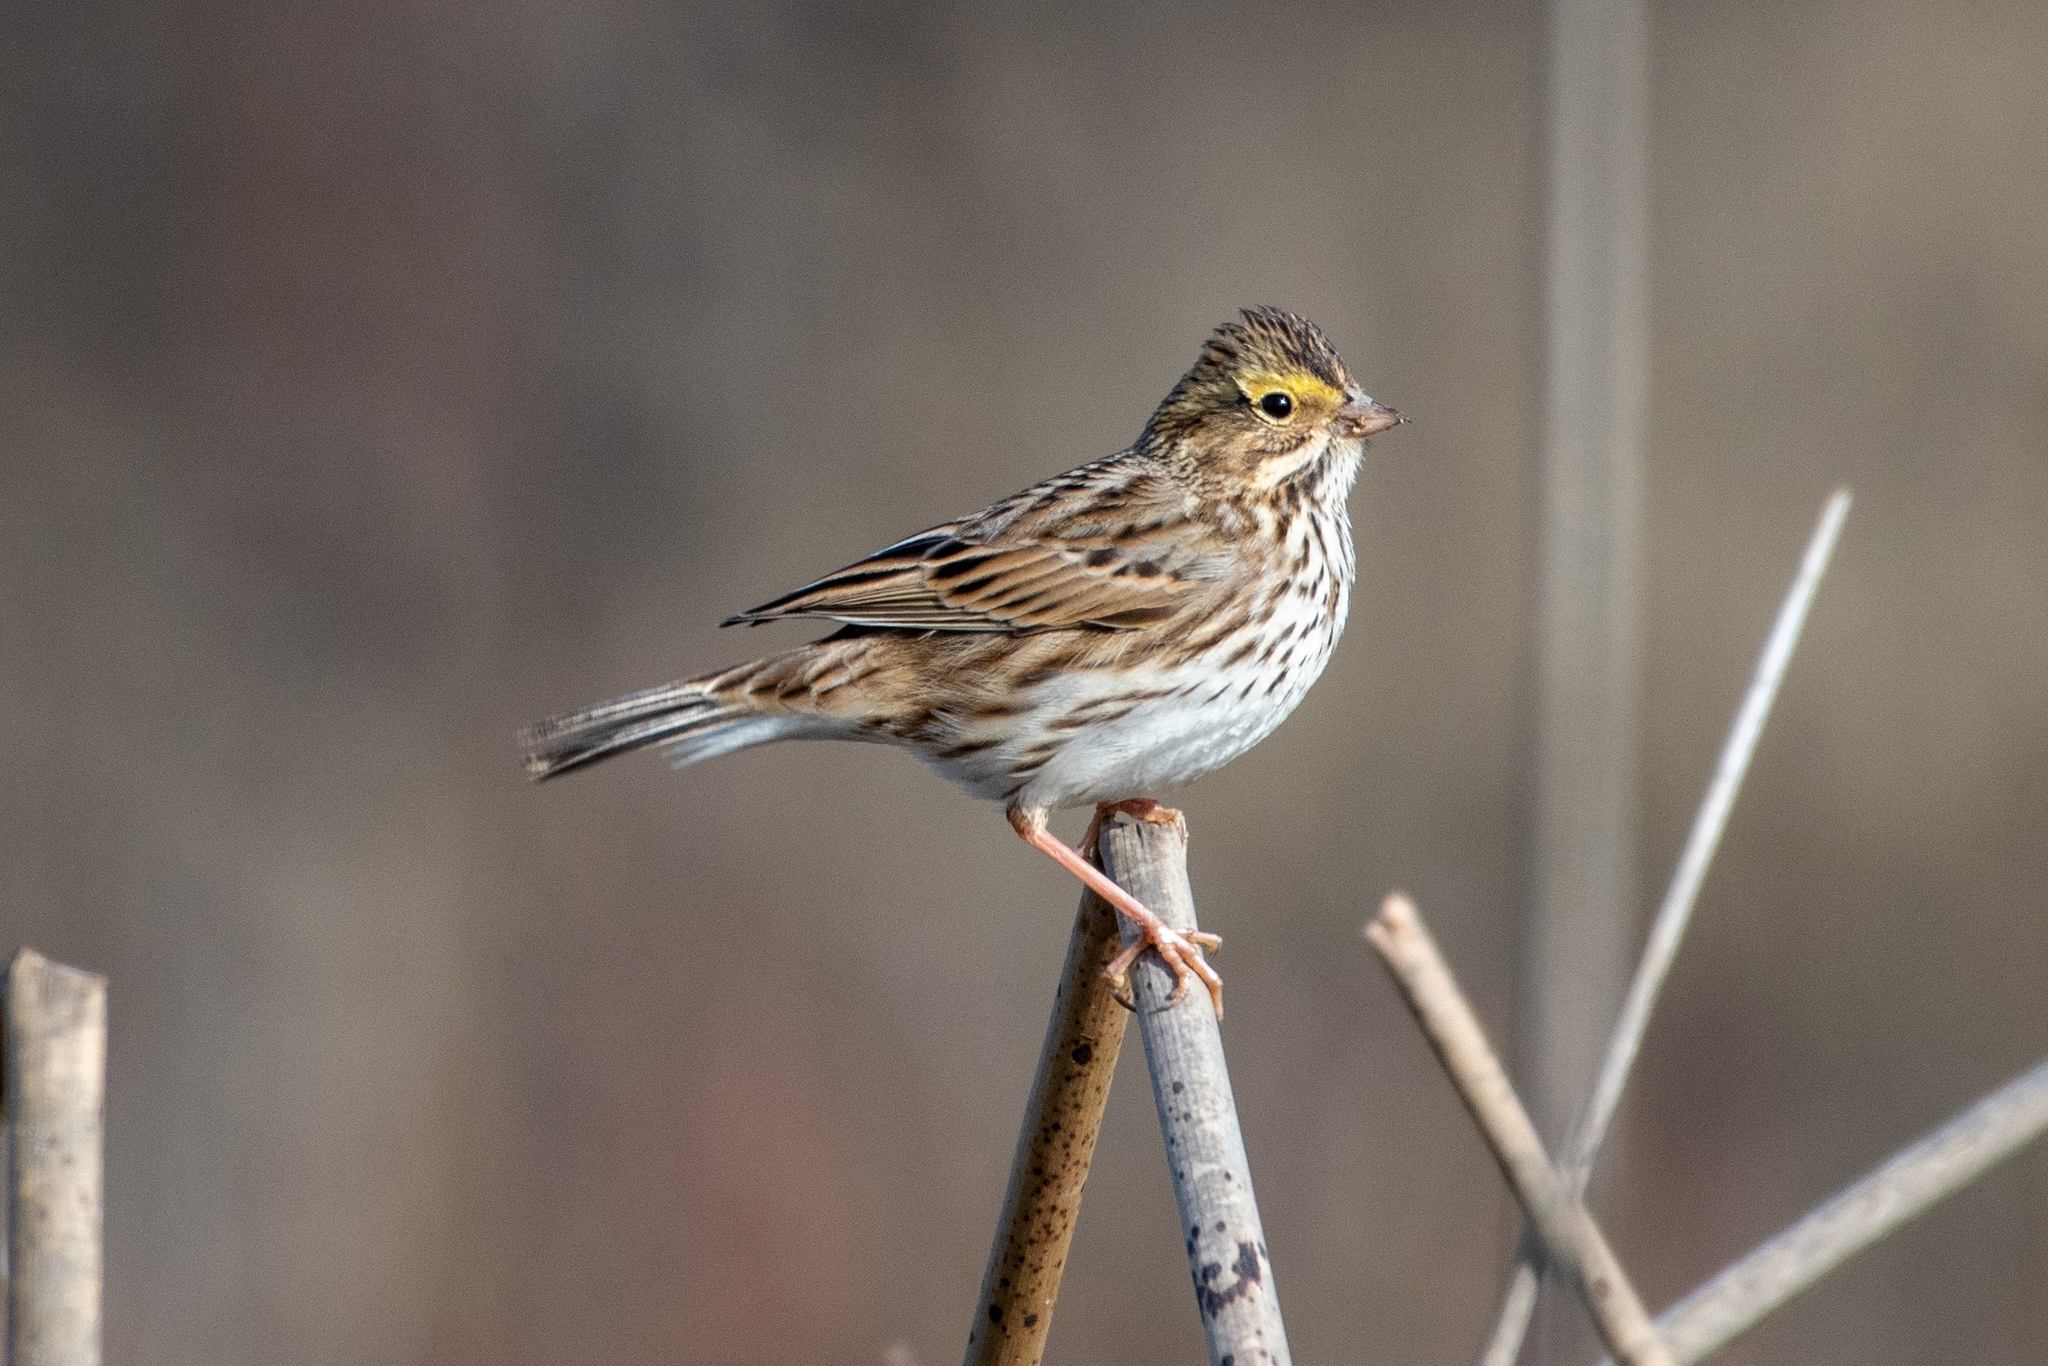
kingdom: Animalia
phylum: Chordata
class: Aves
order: Passeriformes
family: Passerellidae
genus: Passerculus
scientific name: Passerculus sandwichensis
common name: Savannah sparrow
